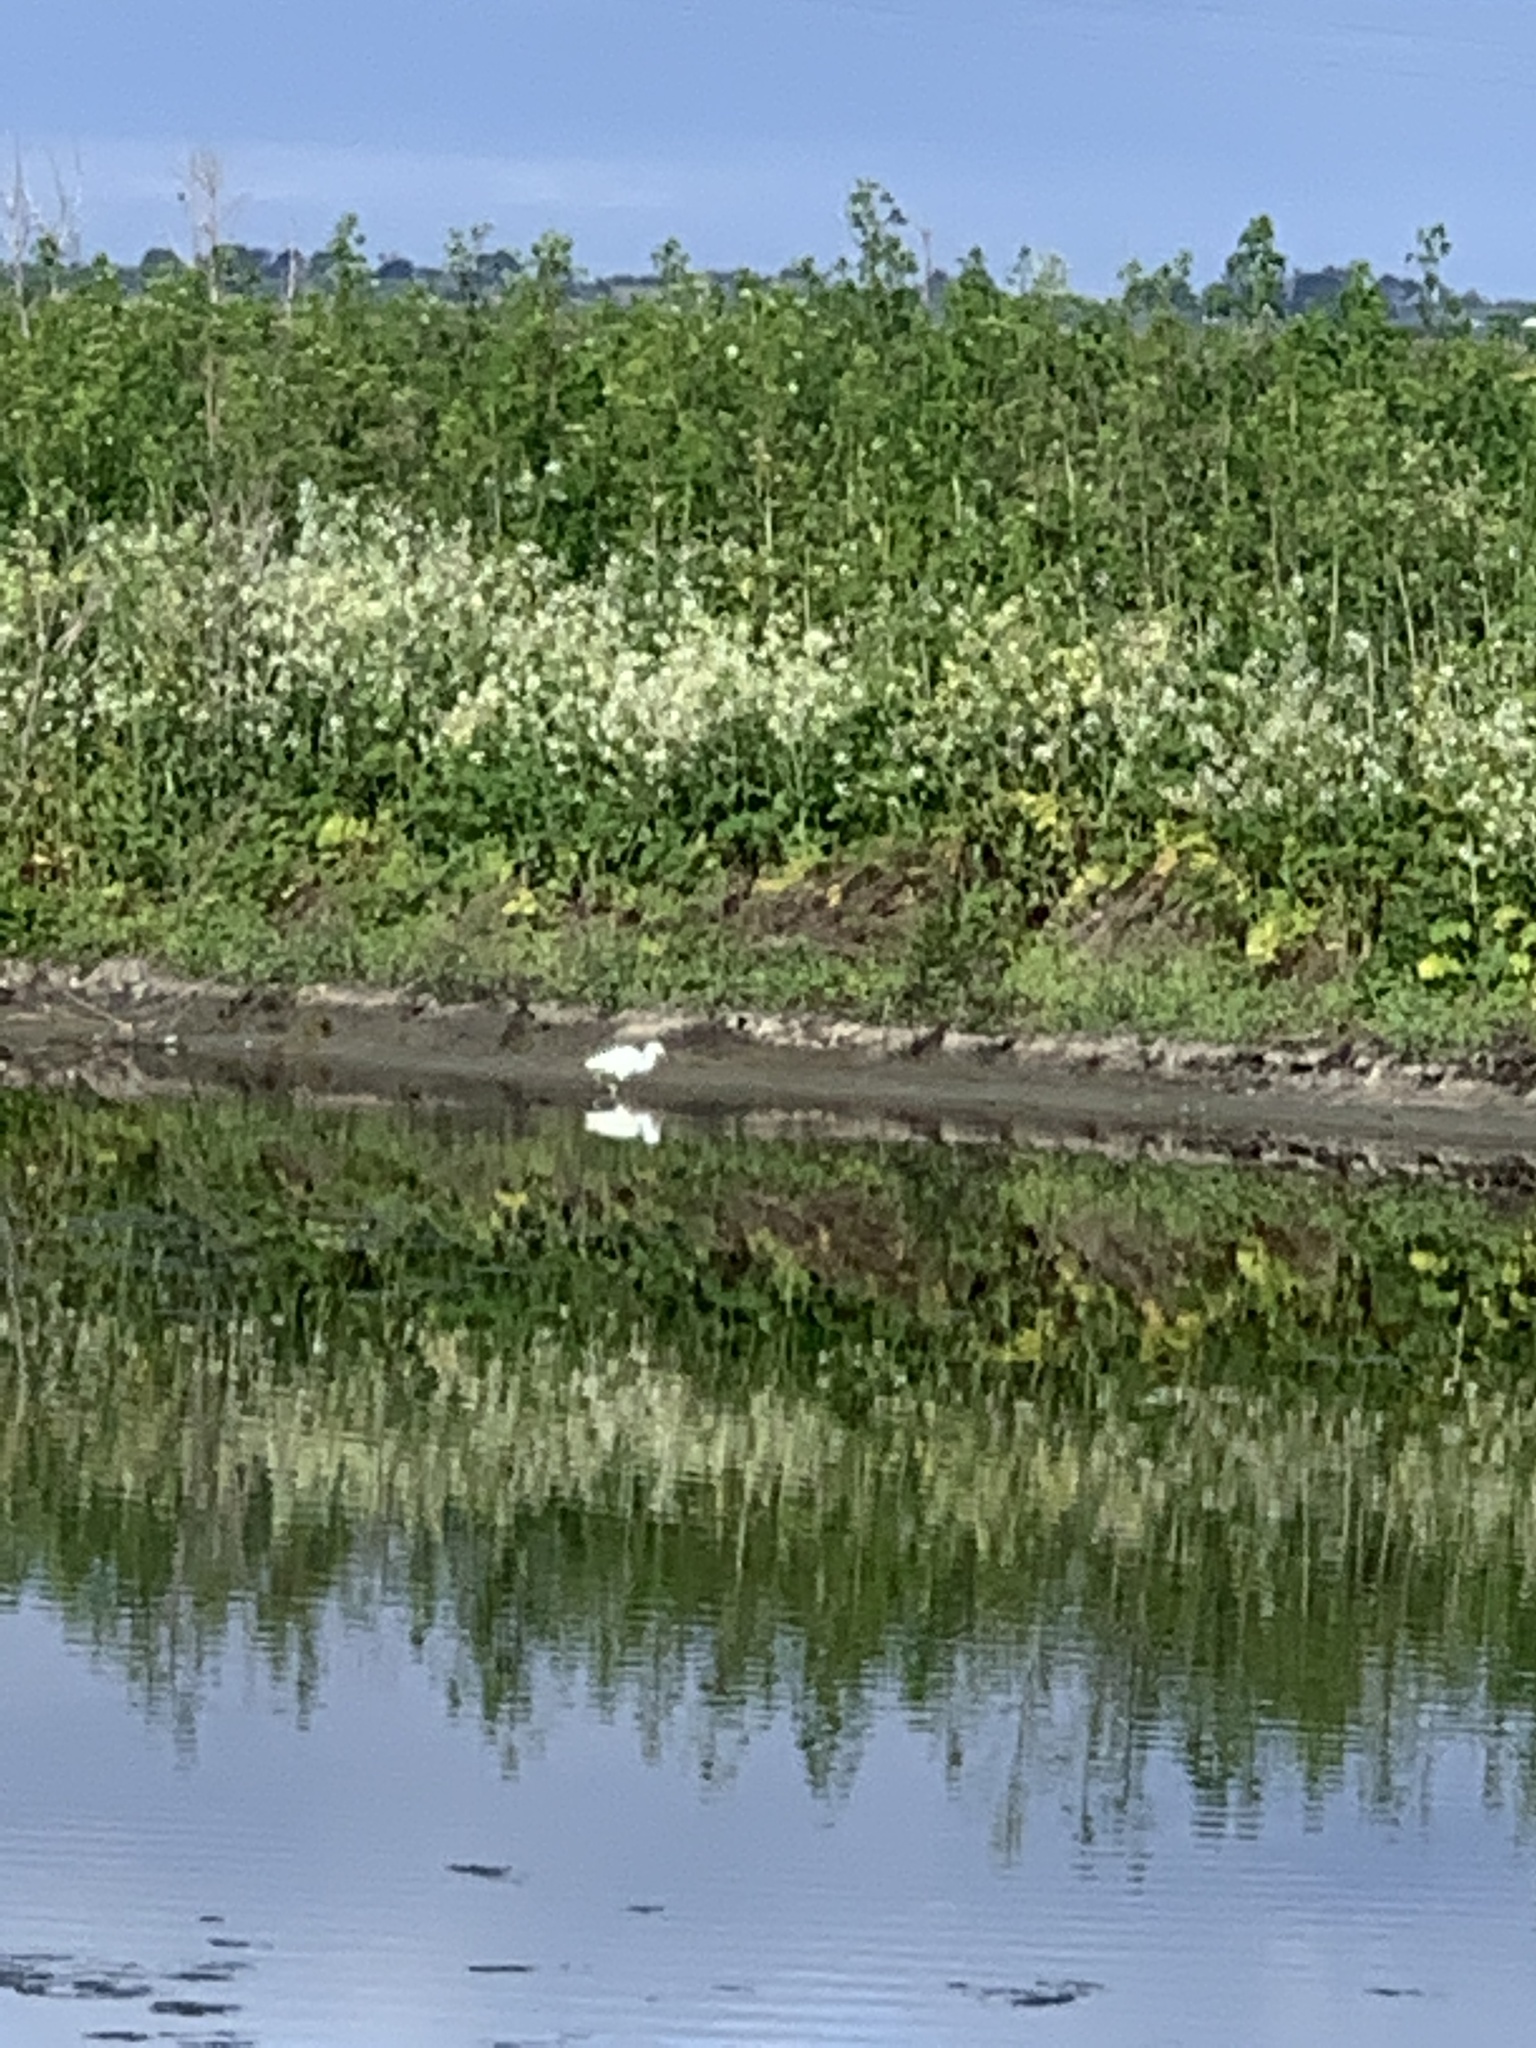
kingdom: Animalia
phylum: Chordata
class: Aves
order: Pelecaniformes
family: Ardeidae
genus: Egretta
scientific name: Egretta thula
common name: Snowy egret
